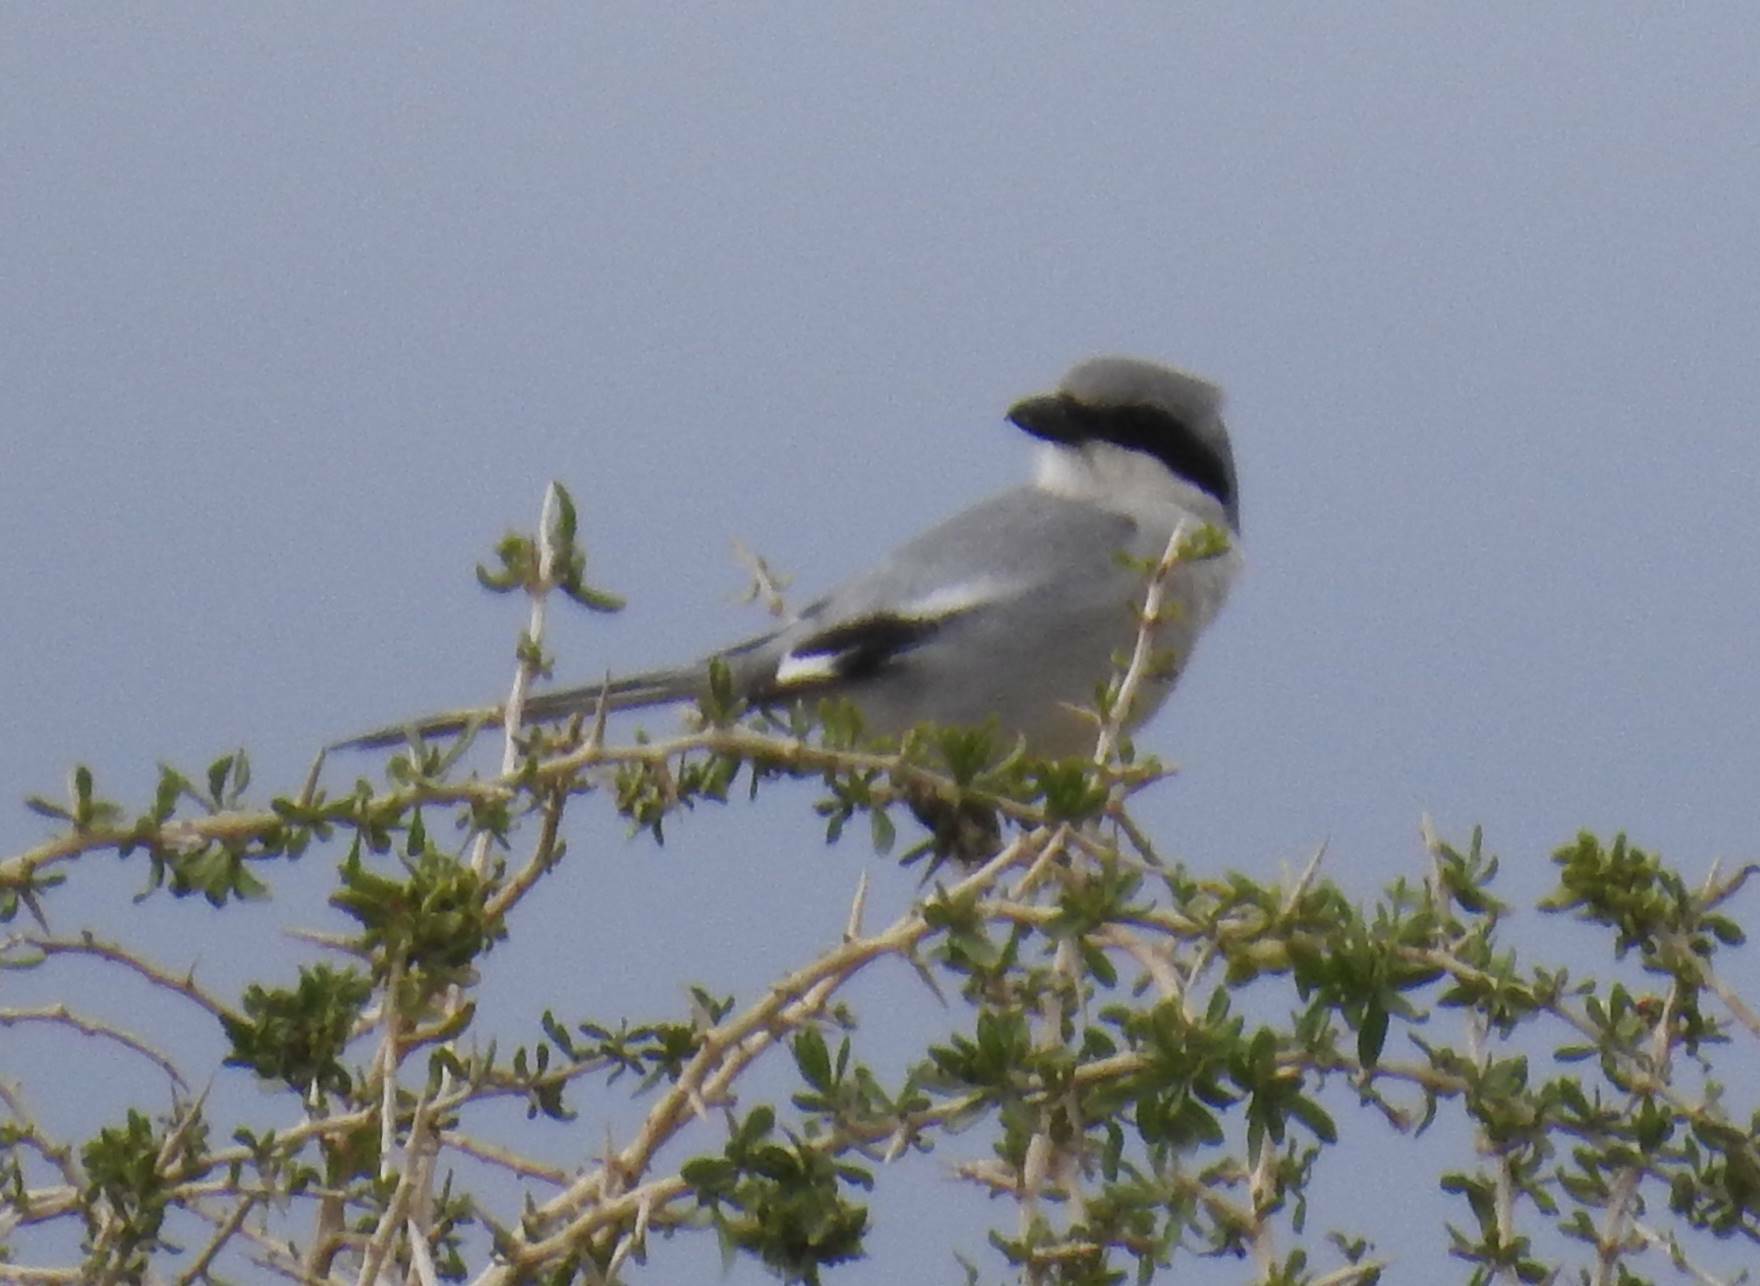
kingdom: Animalia
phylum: Chordata
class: Aves
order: Passeriformes
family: Laniidae
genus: Lanius
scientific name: Lanius excubitor
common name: Great grey shrike
